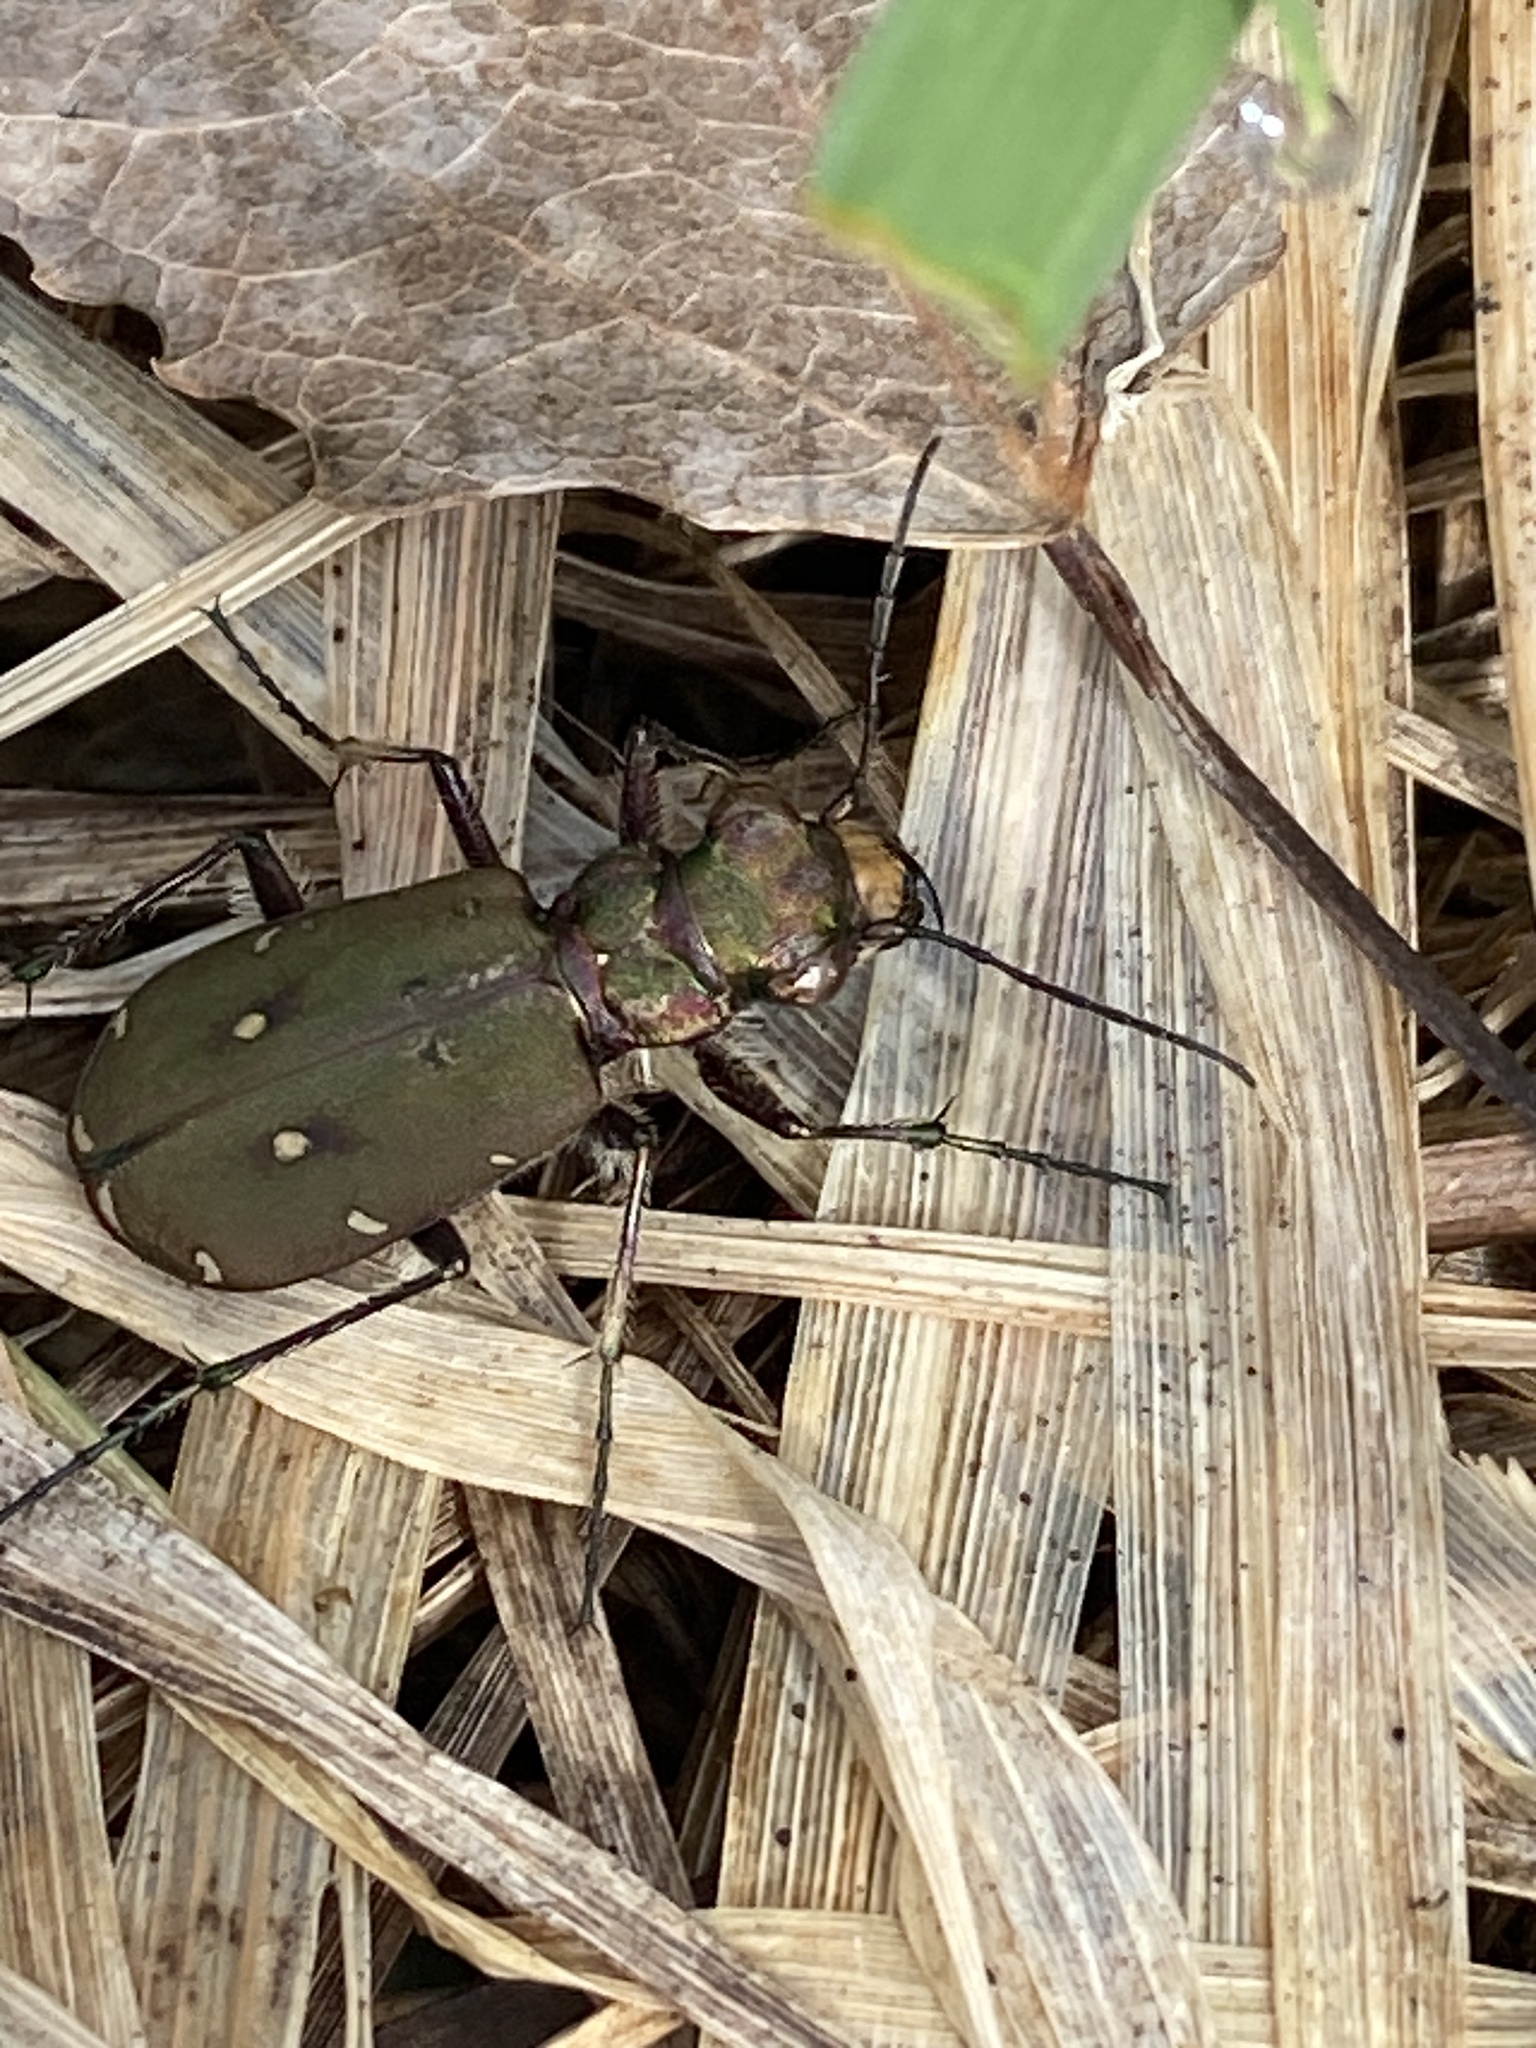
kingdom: Animalia
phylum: Arthropoda
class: Insecta
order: Coleoptera
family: Carabidae
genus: Cicindela
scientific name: Cicindela campestris
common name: Common tiger beetle
